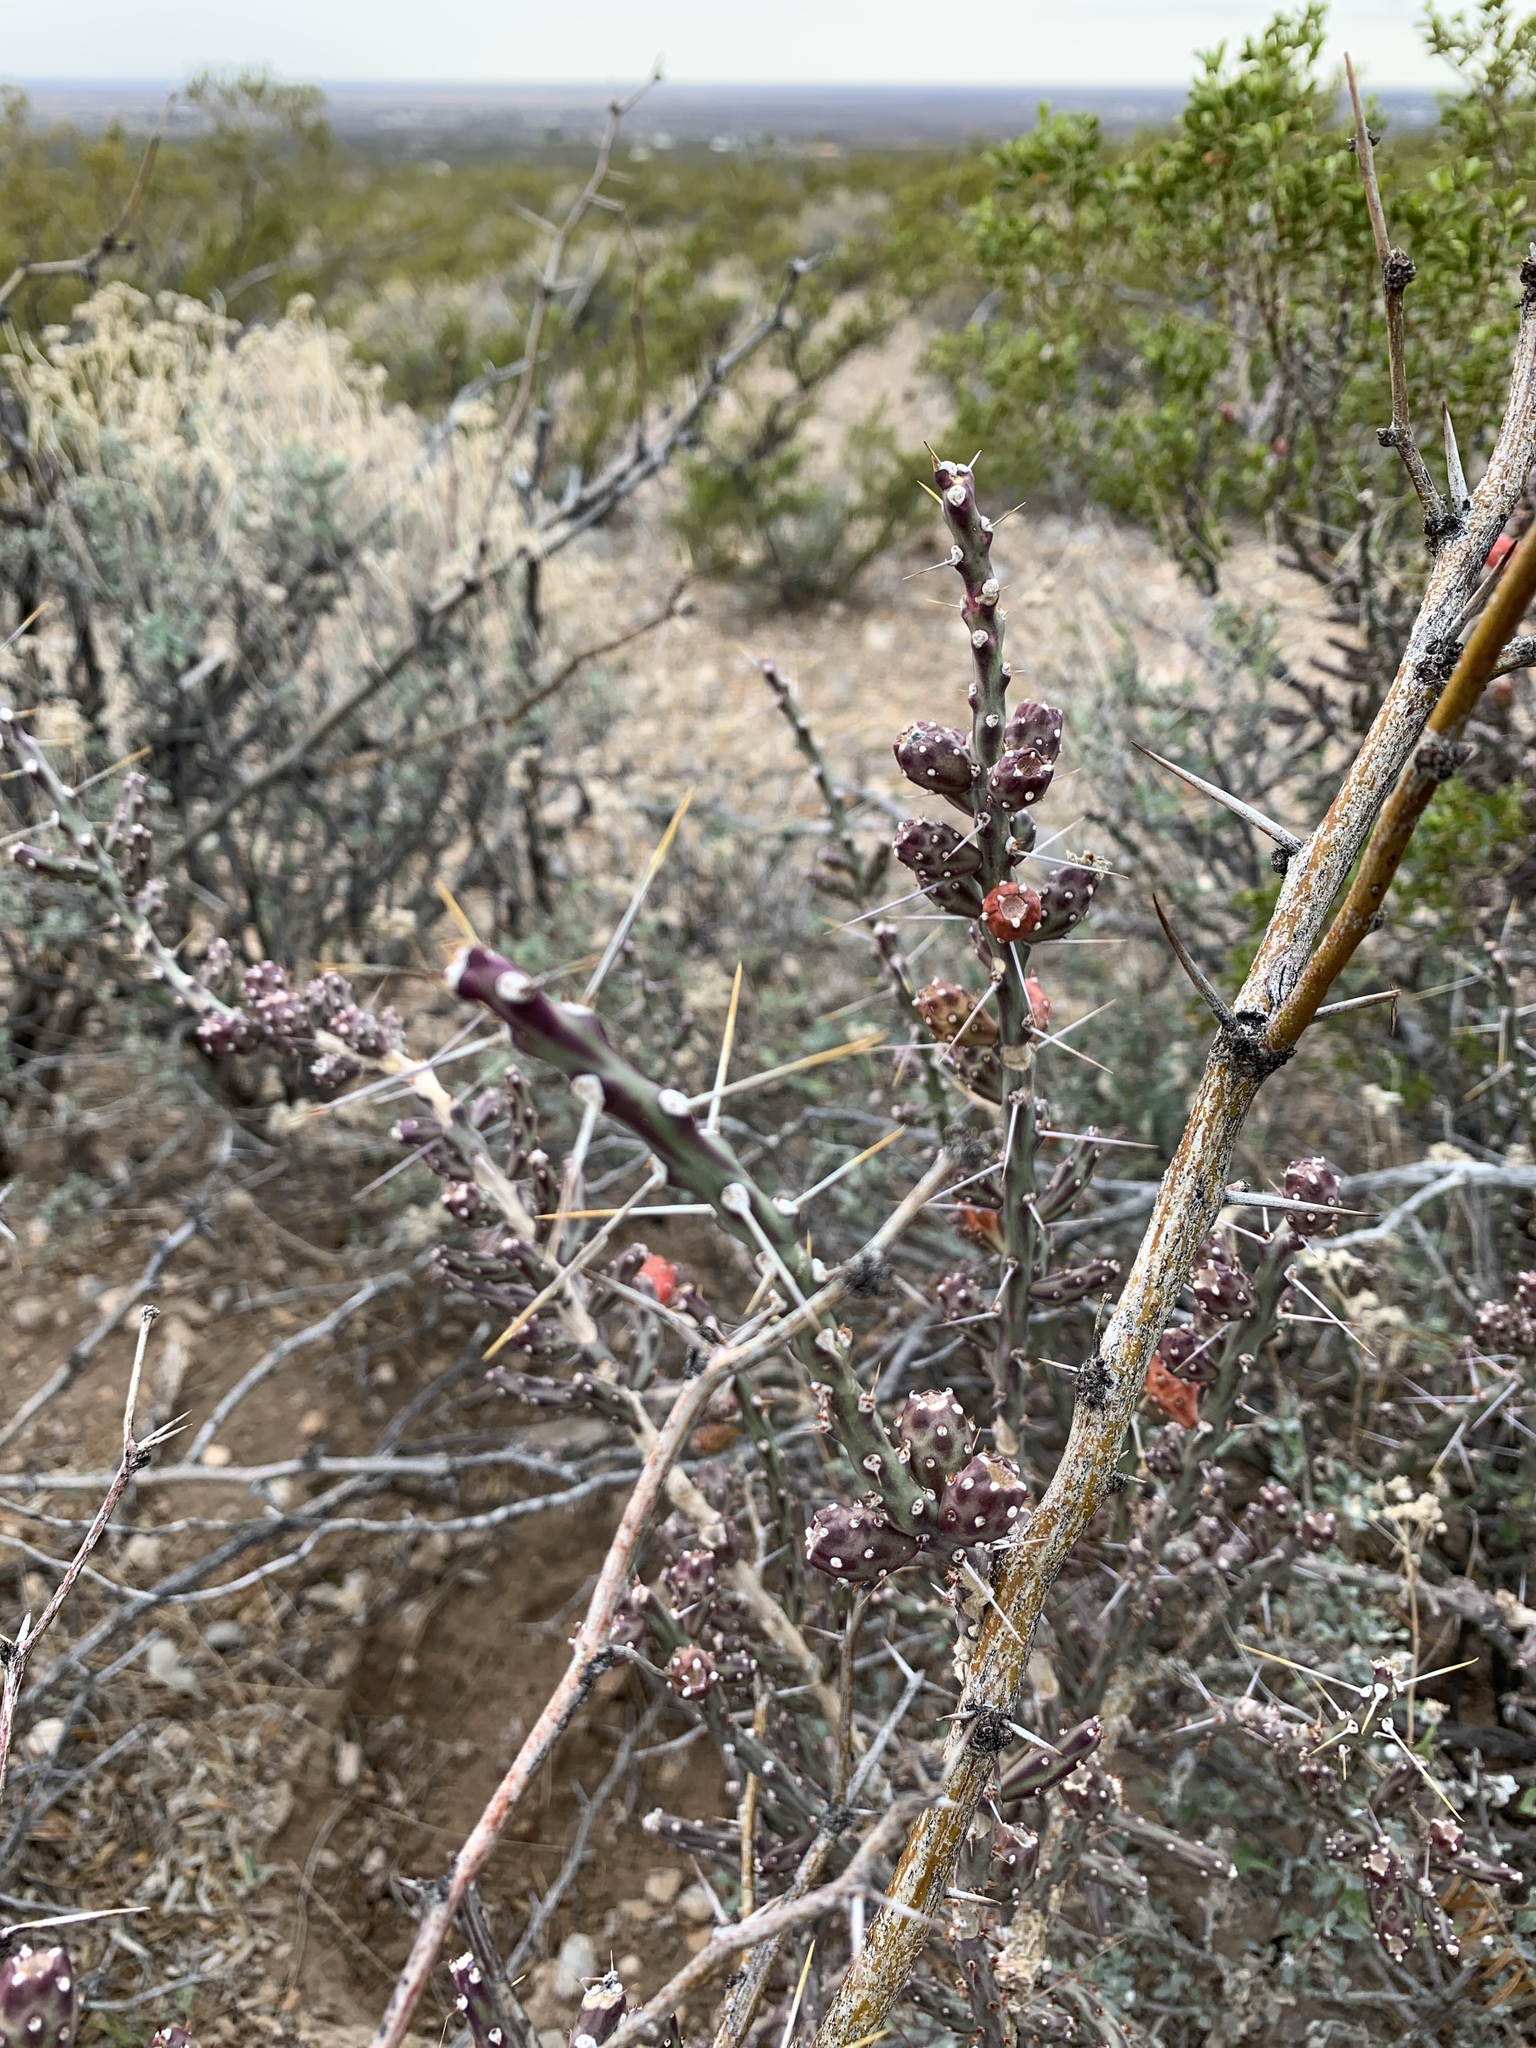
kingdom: Plantae
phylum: Tracheophyta
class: Magnoliopsida
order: Caryophyllales
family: Cactaceae
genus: Cylindropuntia
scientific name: Cylindropuntia leptocaulis
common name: Christmas cactus
